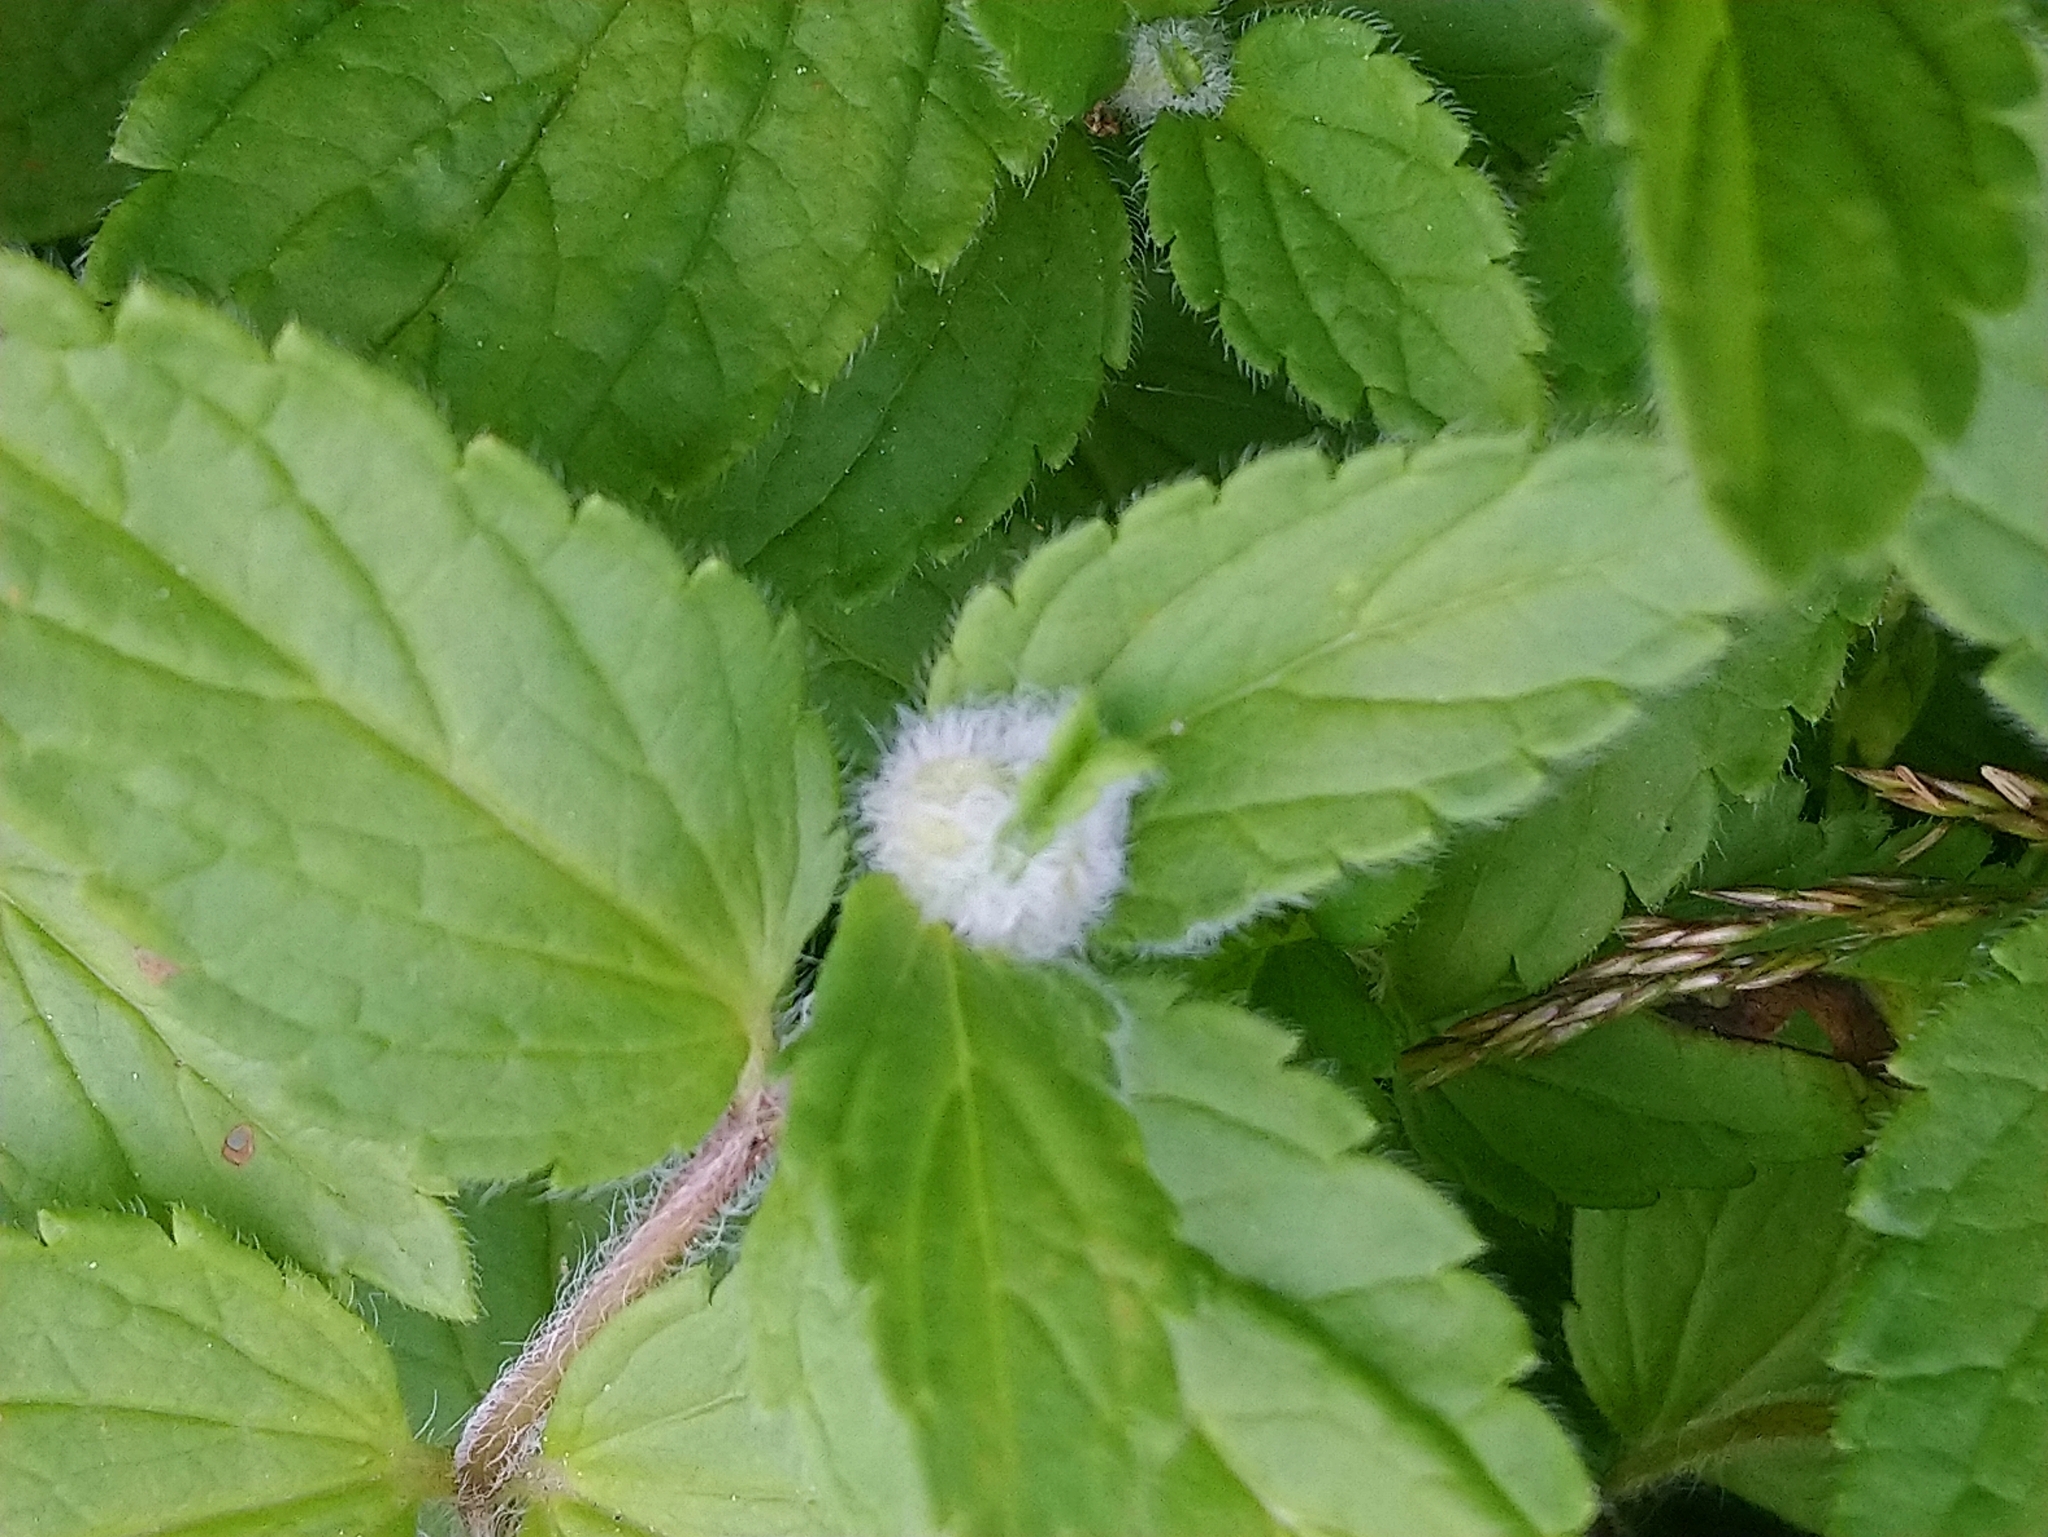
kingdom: Animalia
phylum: Arthropoda
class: Insecta
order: Diptera
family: Cecidomyiidae
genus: Jaapiella
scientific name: Jaapiella veronicae
